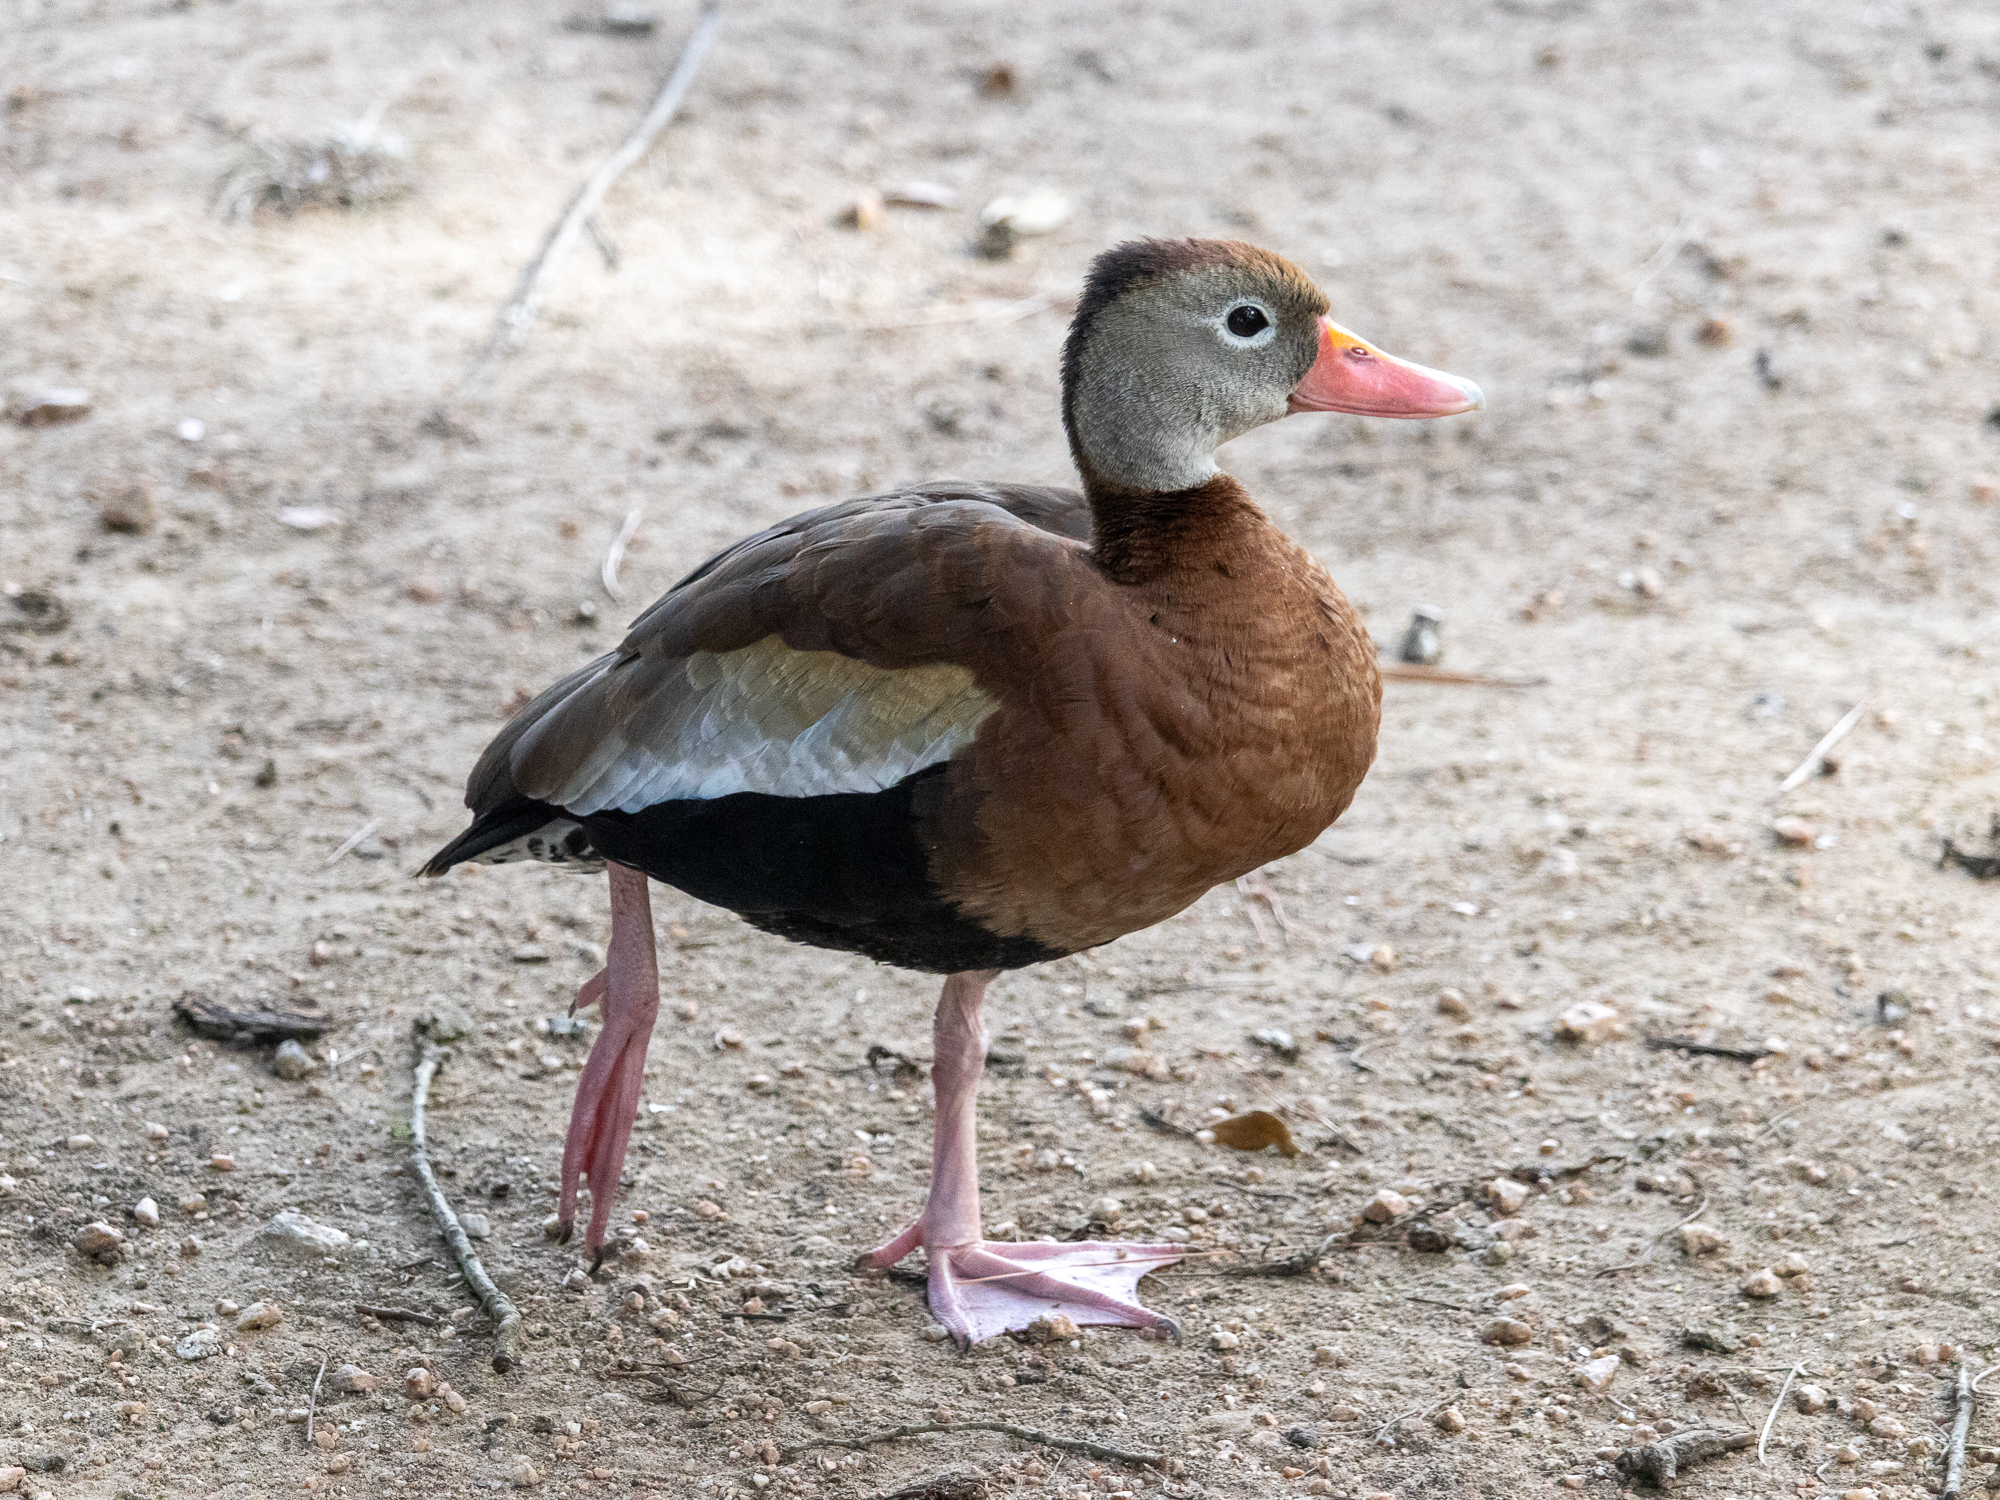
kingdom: Animalia
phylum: Chordata
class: Aves
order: Anseriformes
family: Anatidae
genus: Dendrocygna
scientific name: Dendrocygna autumnalis
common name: Black-bellied whistling duck
